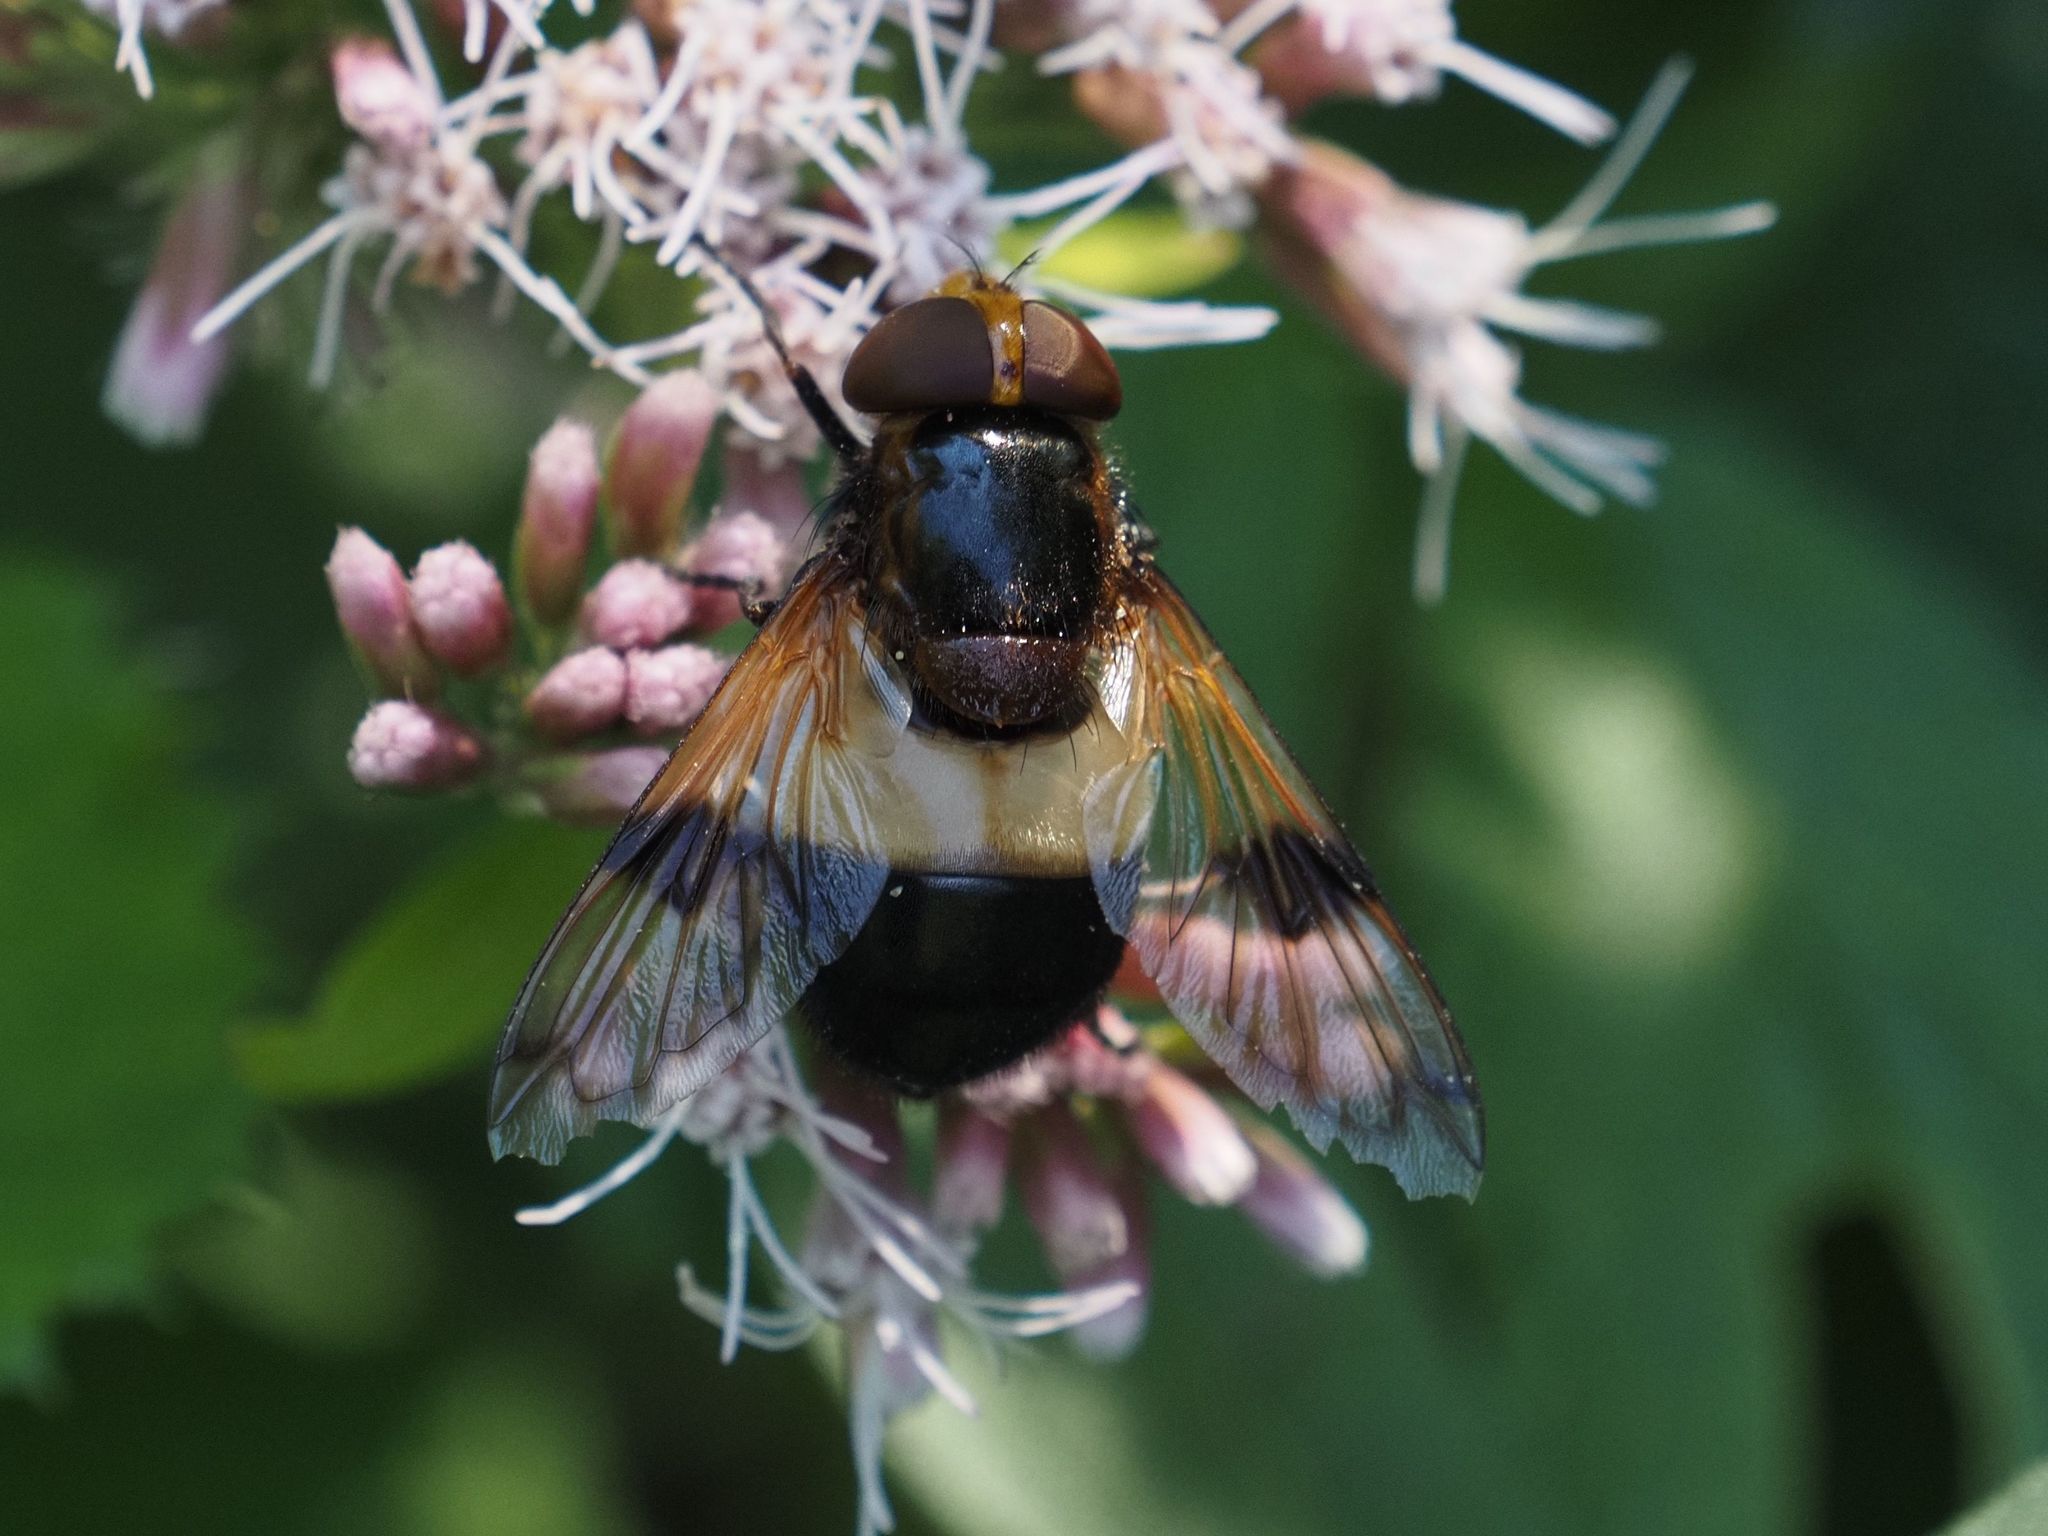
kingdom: Animalia
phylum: Arthropoda
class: Insecta
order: Diptera
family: Syrphidae
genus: Volucella
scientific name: Volucella pellucens
